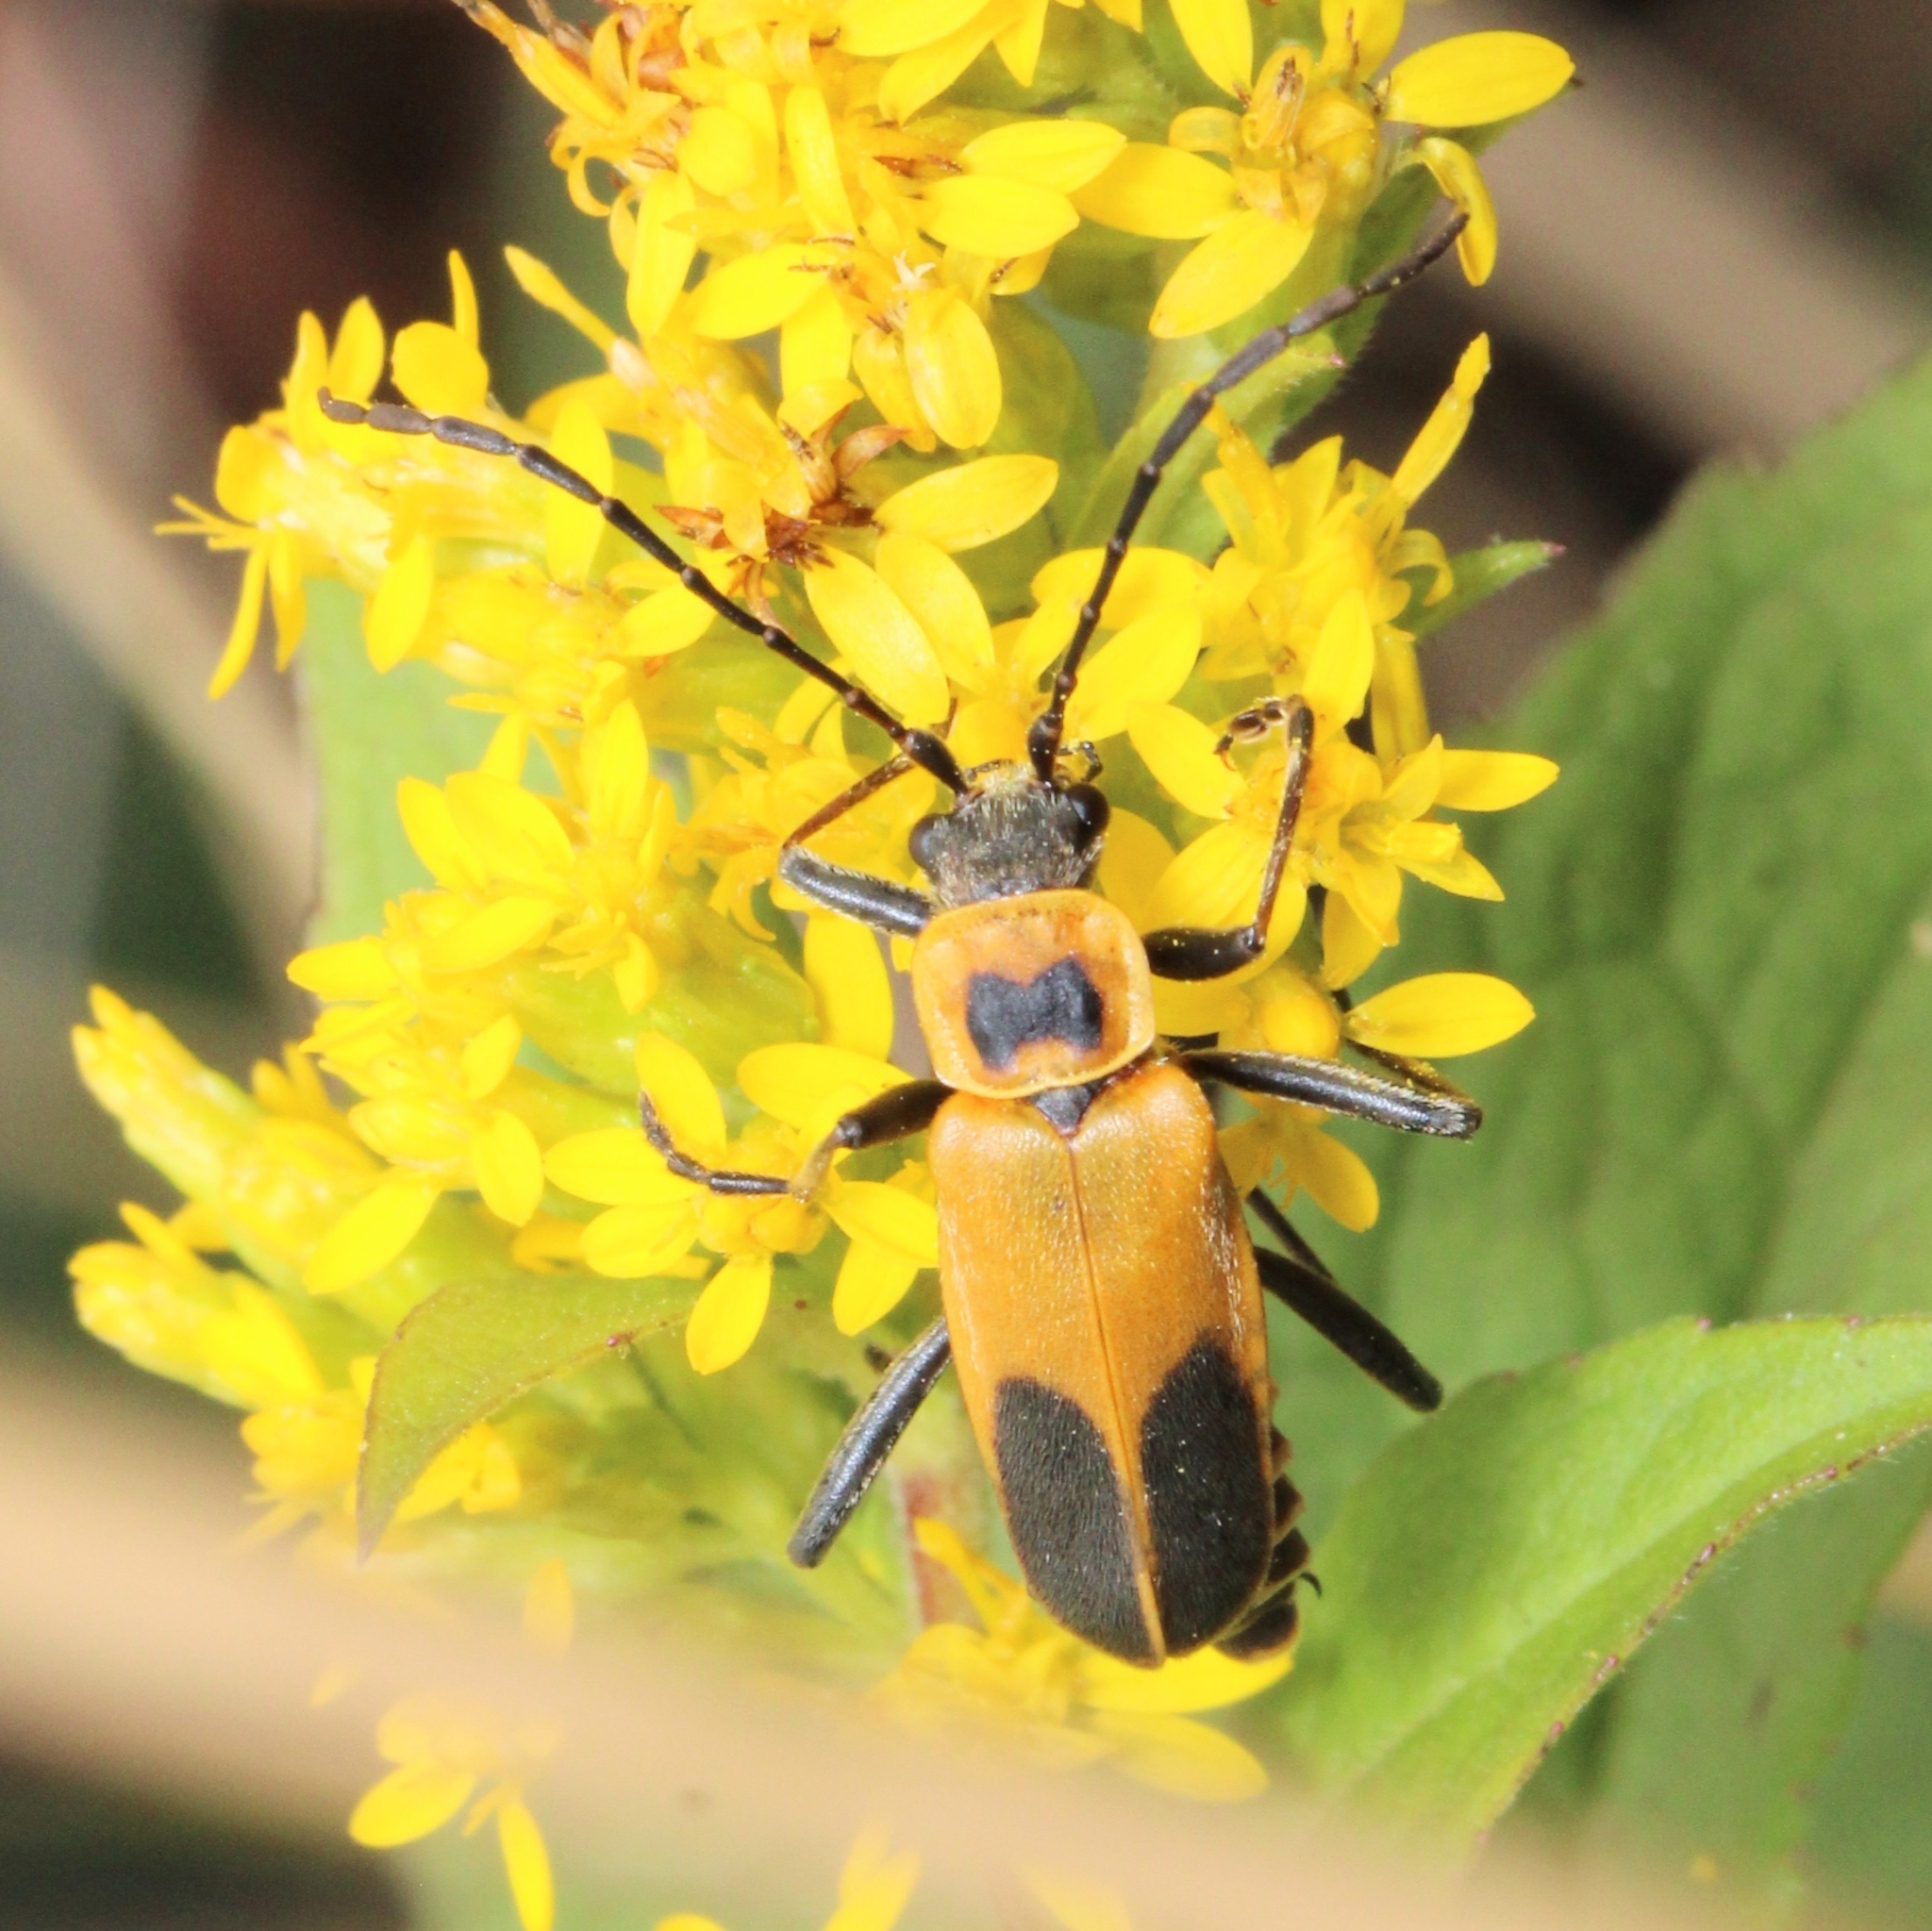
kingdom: Animalia
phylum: Arthropoda
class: Insecta
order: Coleoptera
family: Cantharidae
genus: Chauliognathus
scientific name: Chauliognathus pensylvanicus
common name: Goldenrod soldier beetle
